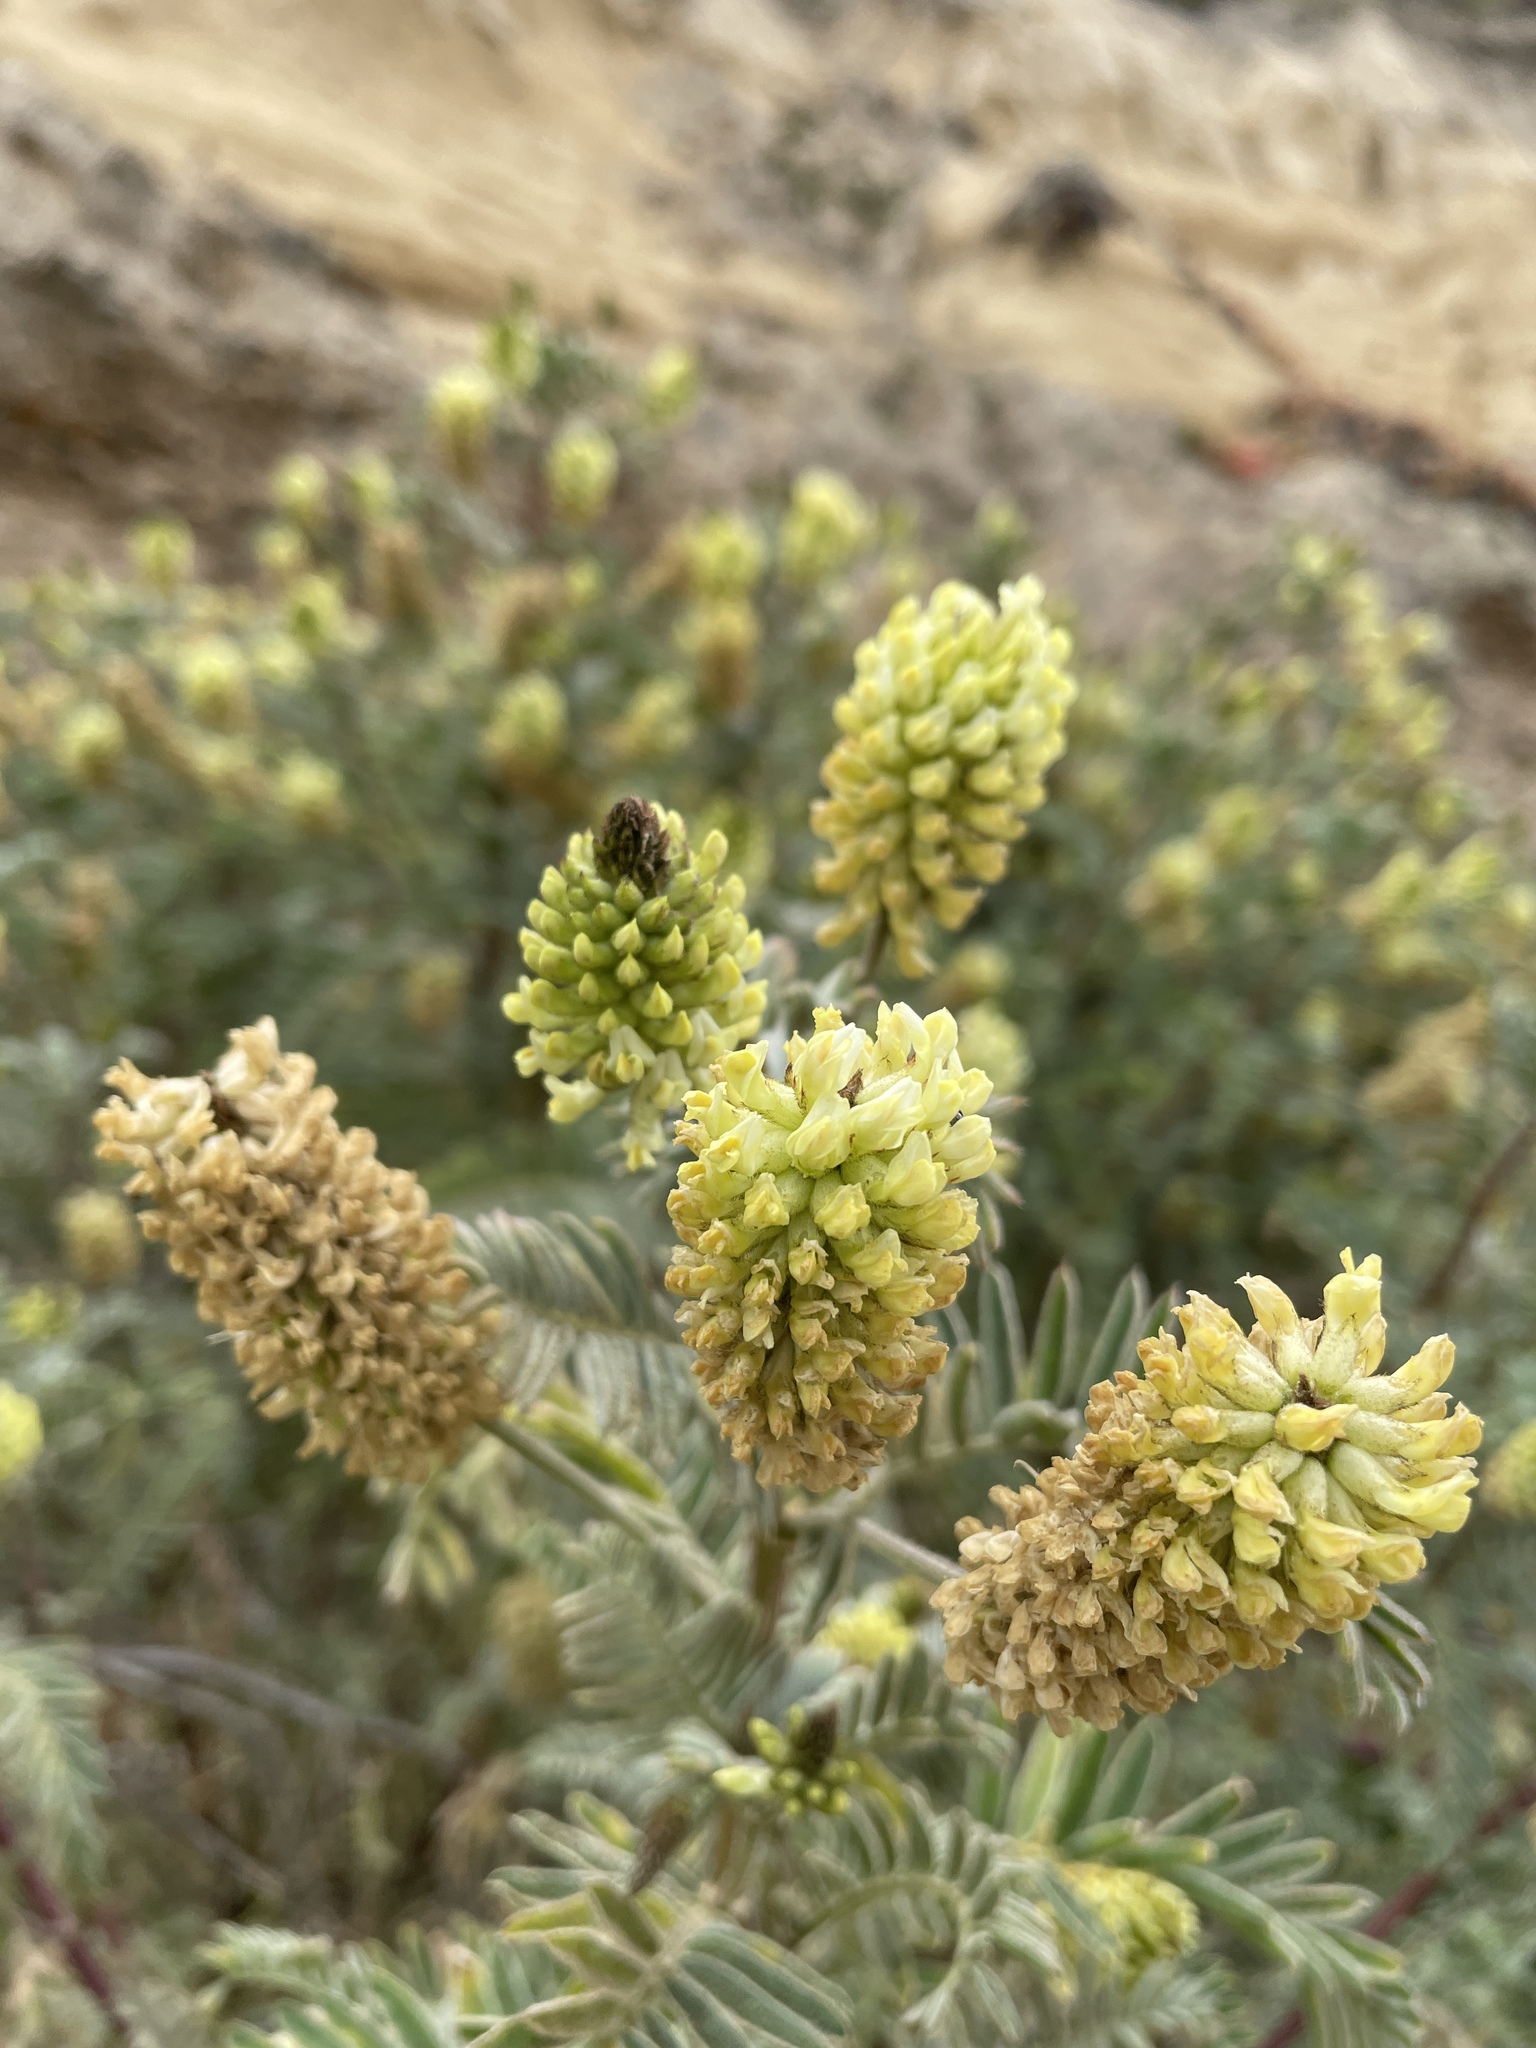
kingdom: Plantae
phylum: Tracheophyta
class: Magnoliopsida
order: Fabales
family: Fabaceae
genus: Astragalus
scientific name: Astragalus pycnostachyus
